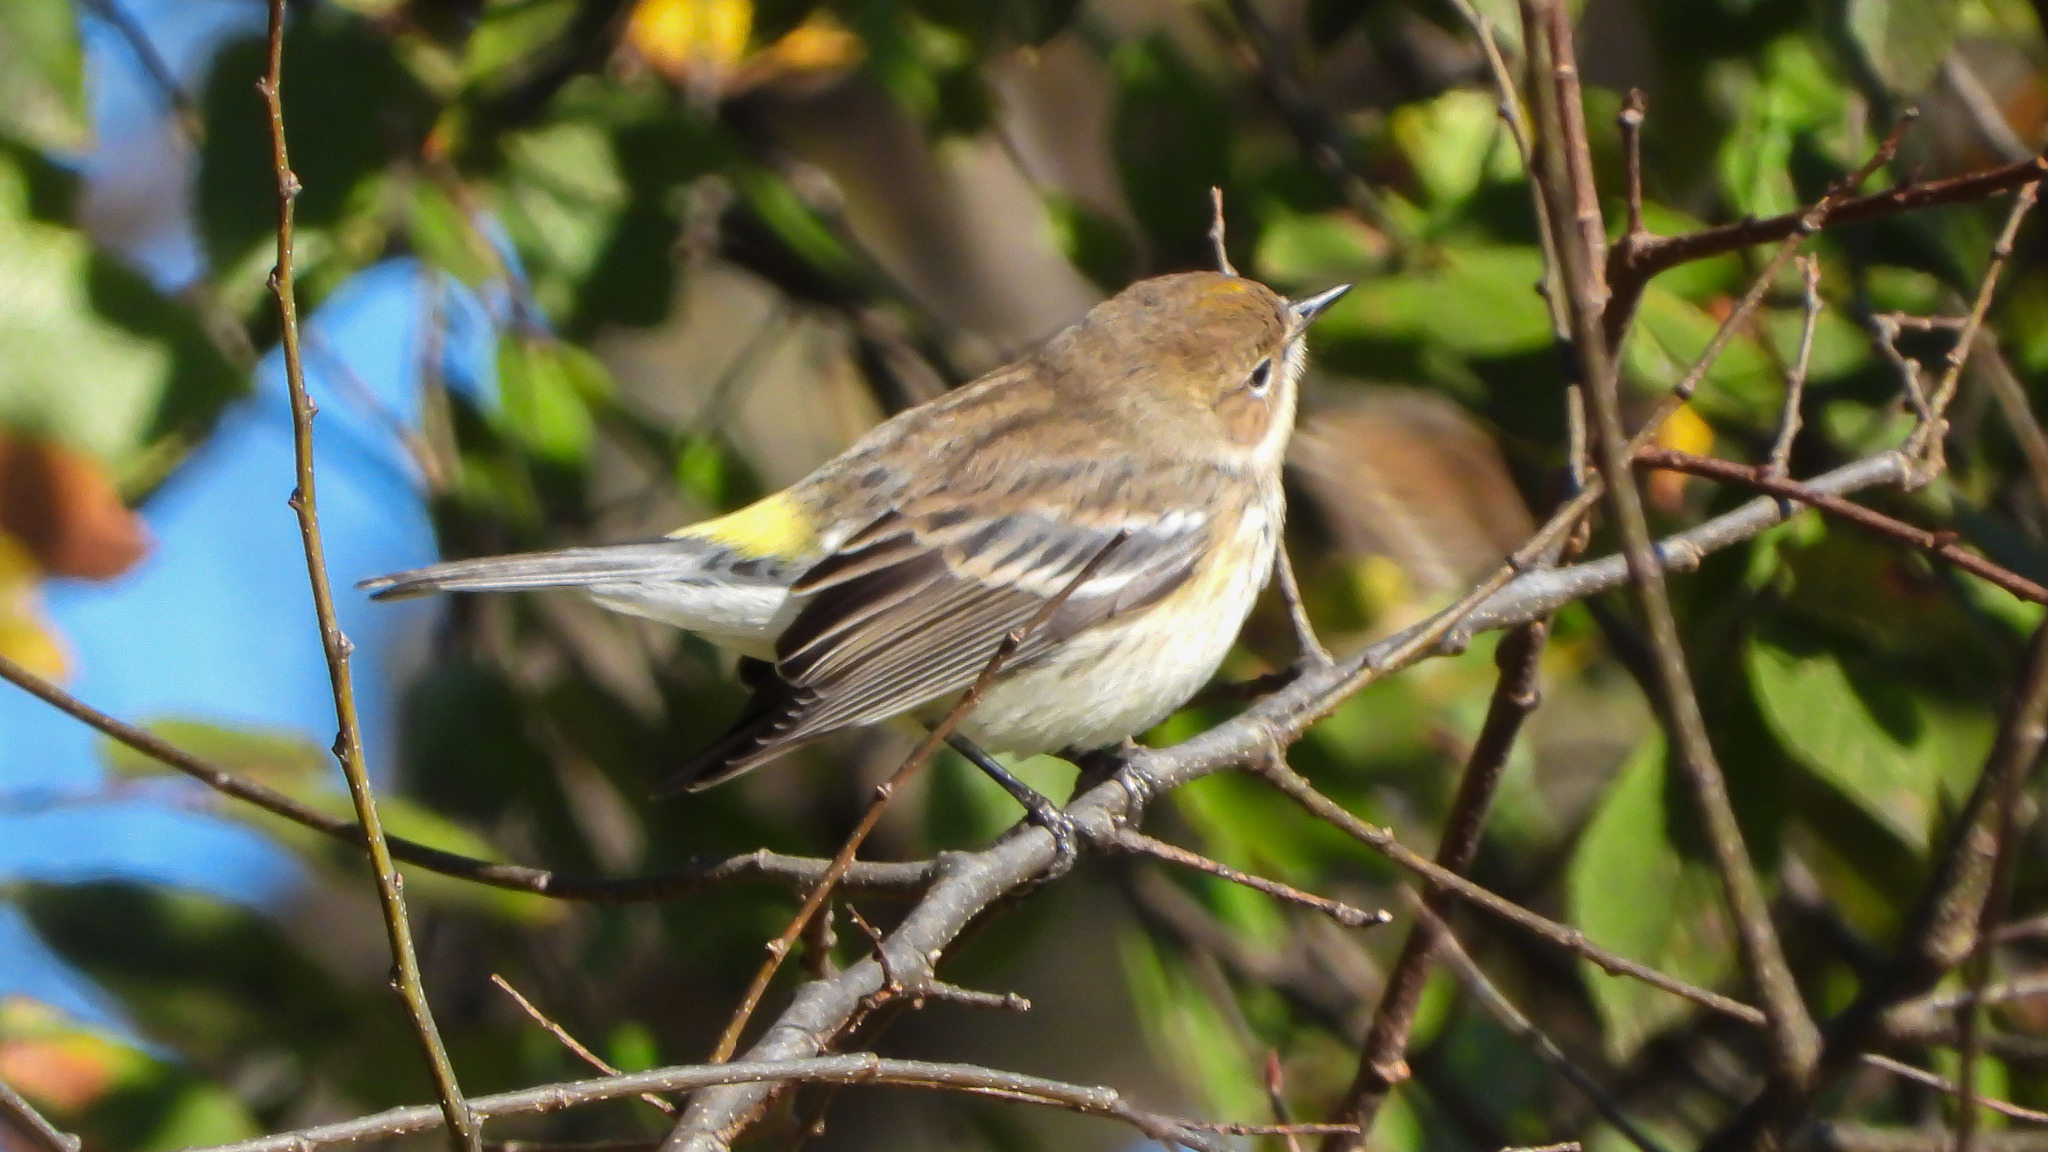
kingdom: Animalia
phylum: Chordata
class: Aves
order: Passeriformes
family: Parulidae
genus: Setophaga
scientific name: Setophaga coronata
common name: Myrtle warbler
